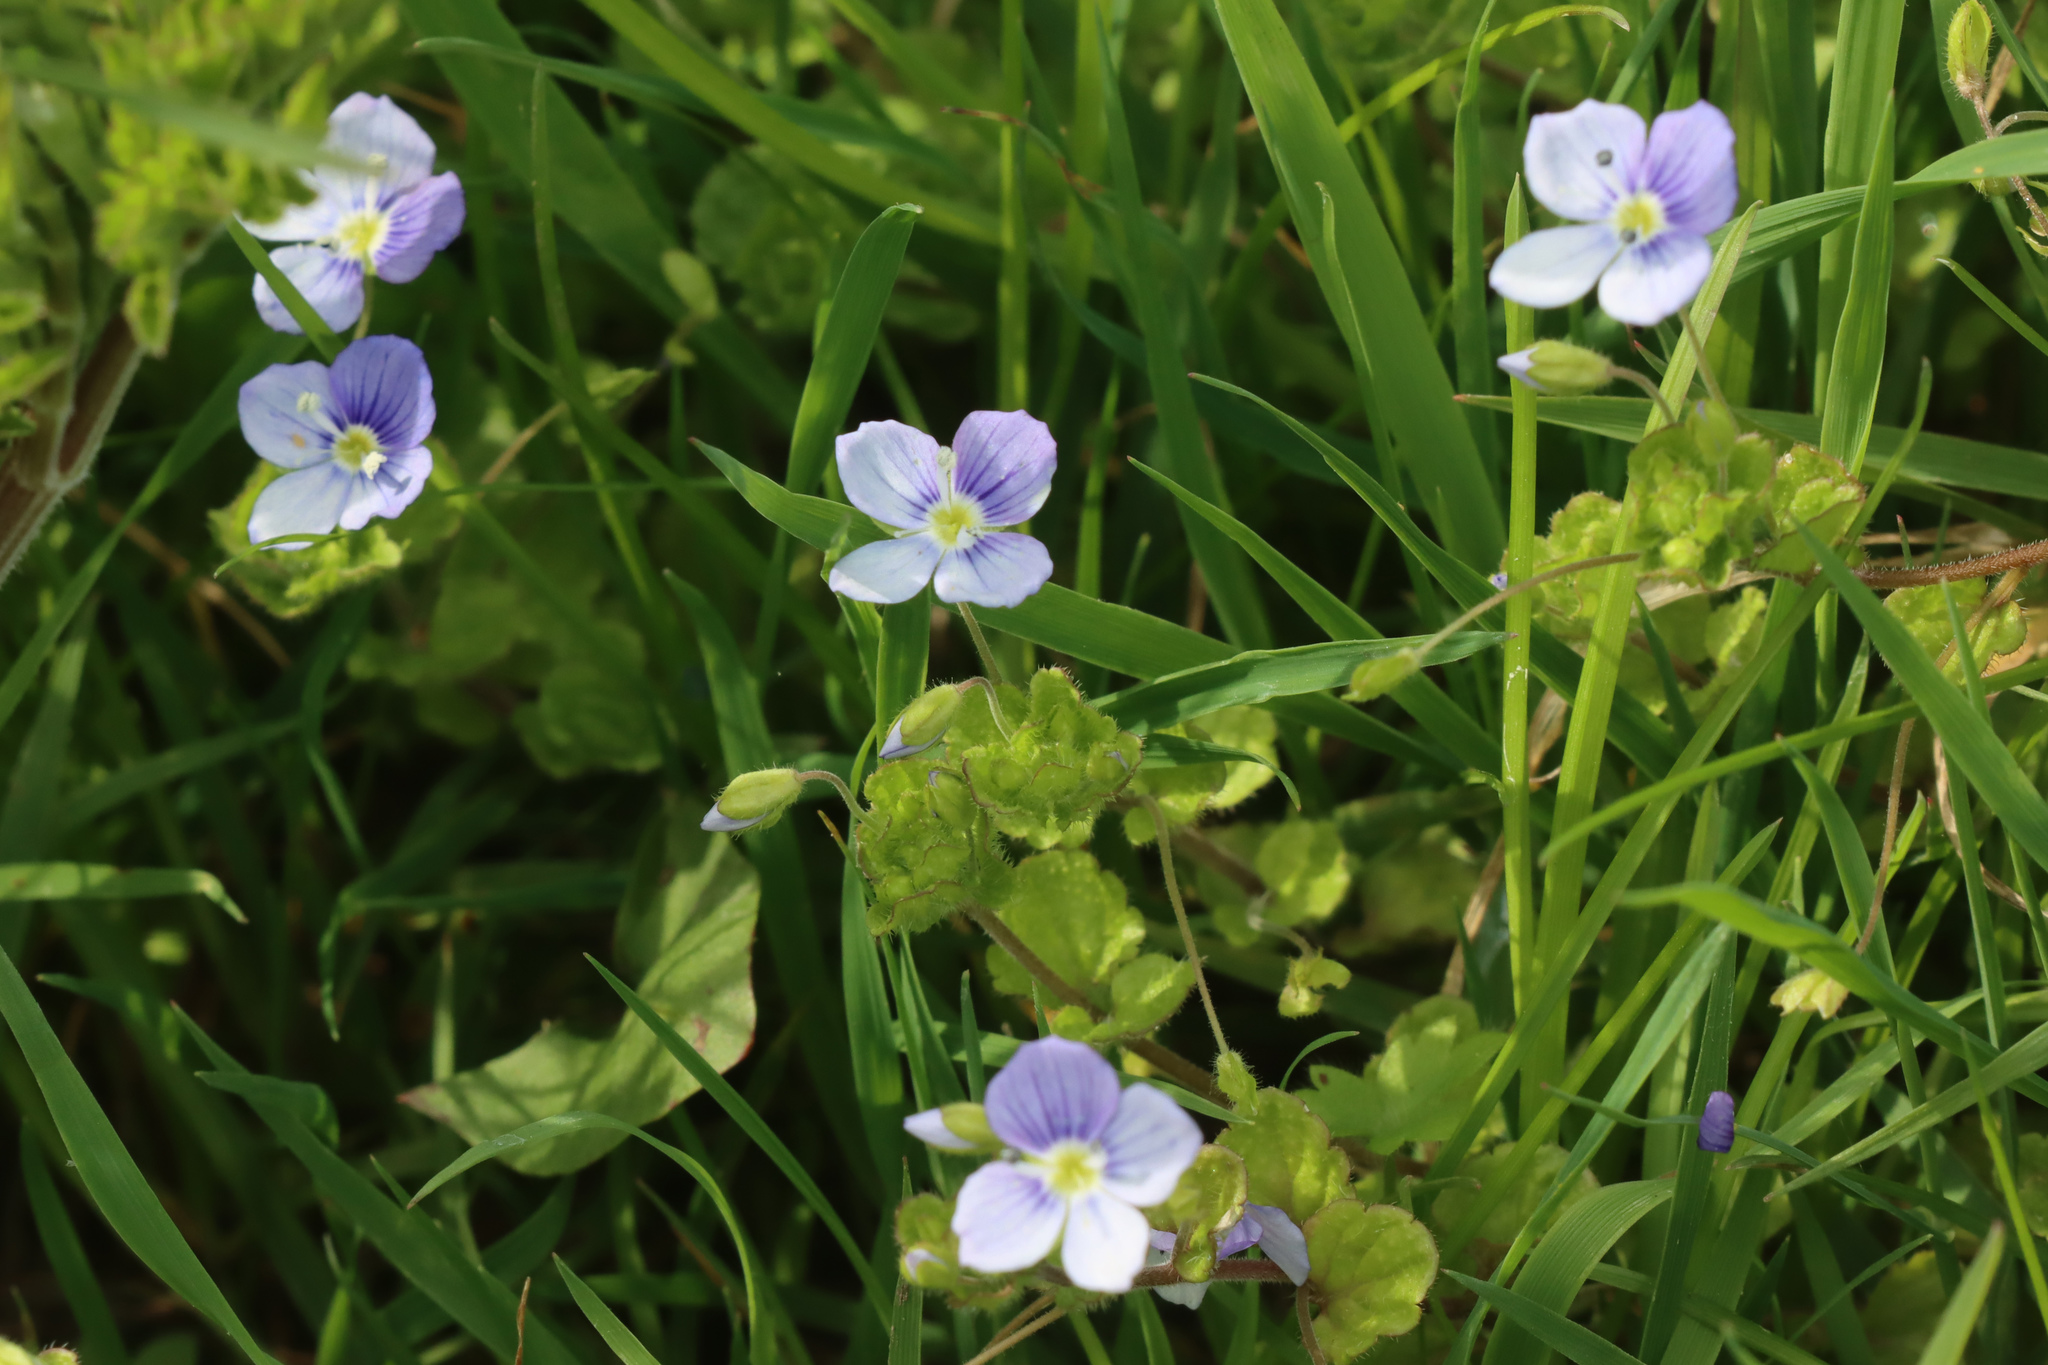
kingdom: Plantae
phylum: Tracheophyta
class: Magnoliopsida
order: Lamiales
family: Plantaginaceae
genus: Veronica
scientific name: Veronica filiformis
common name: Slender speedwell
